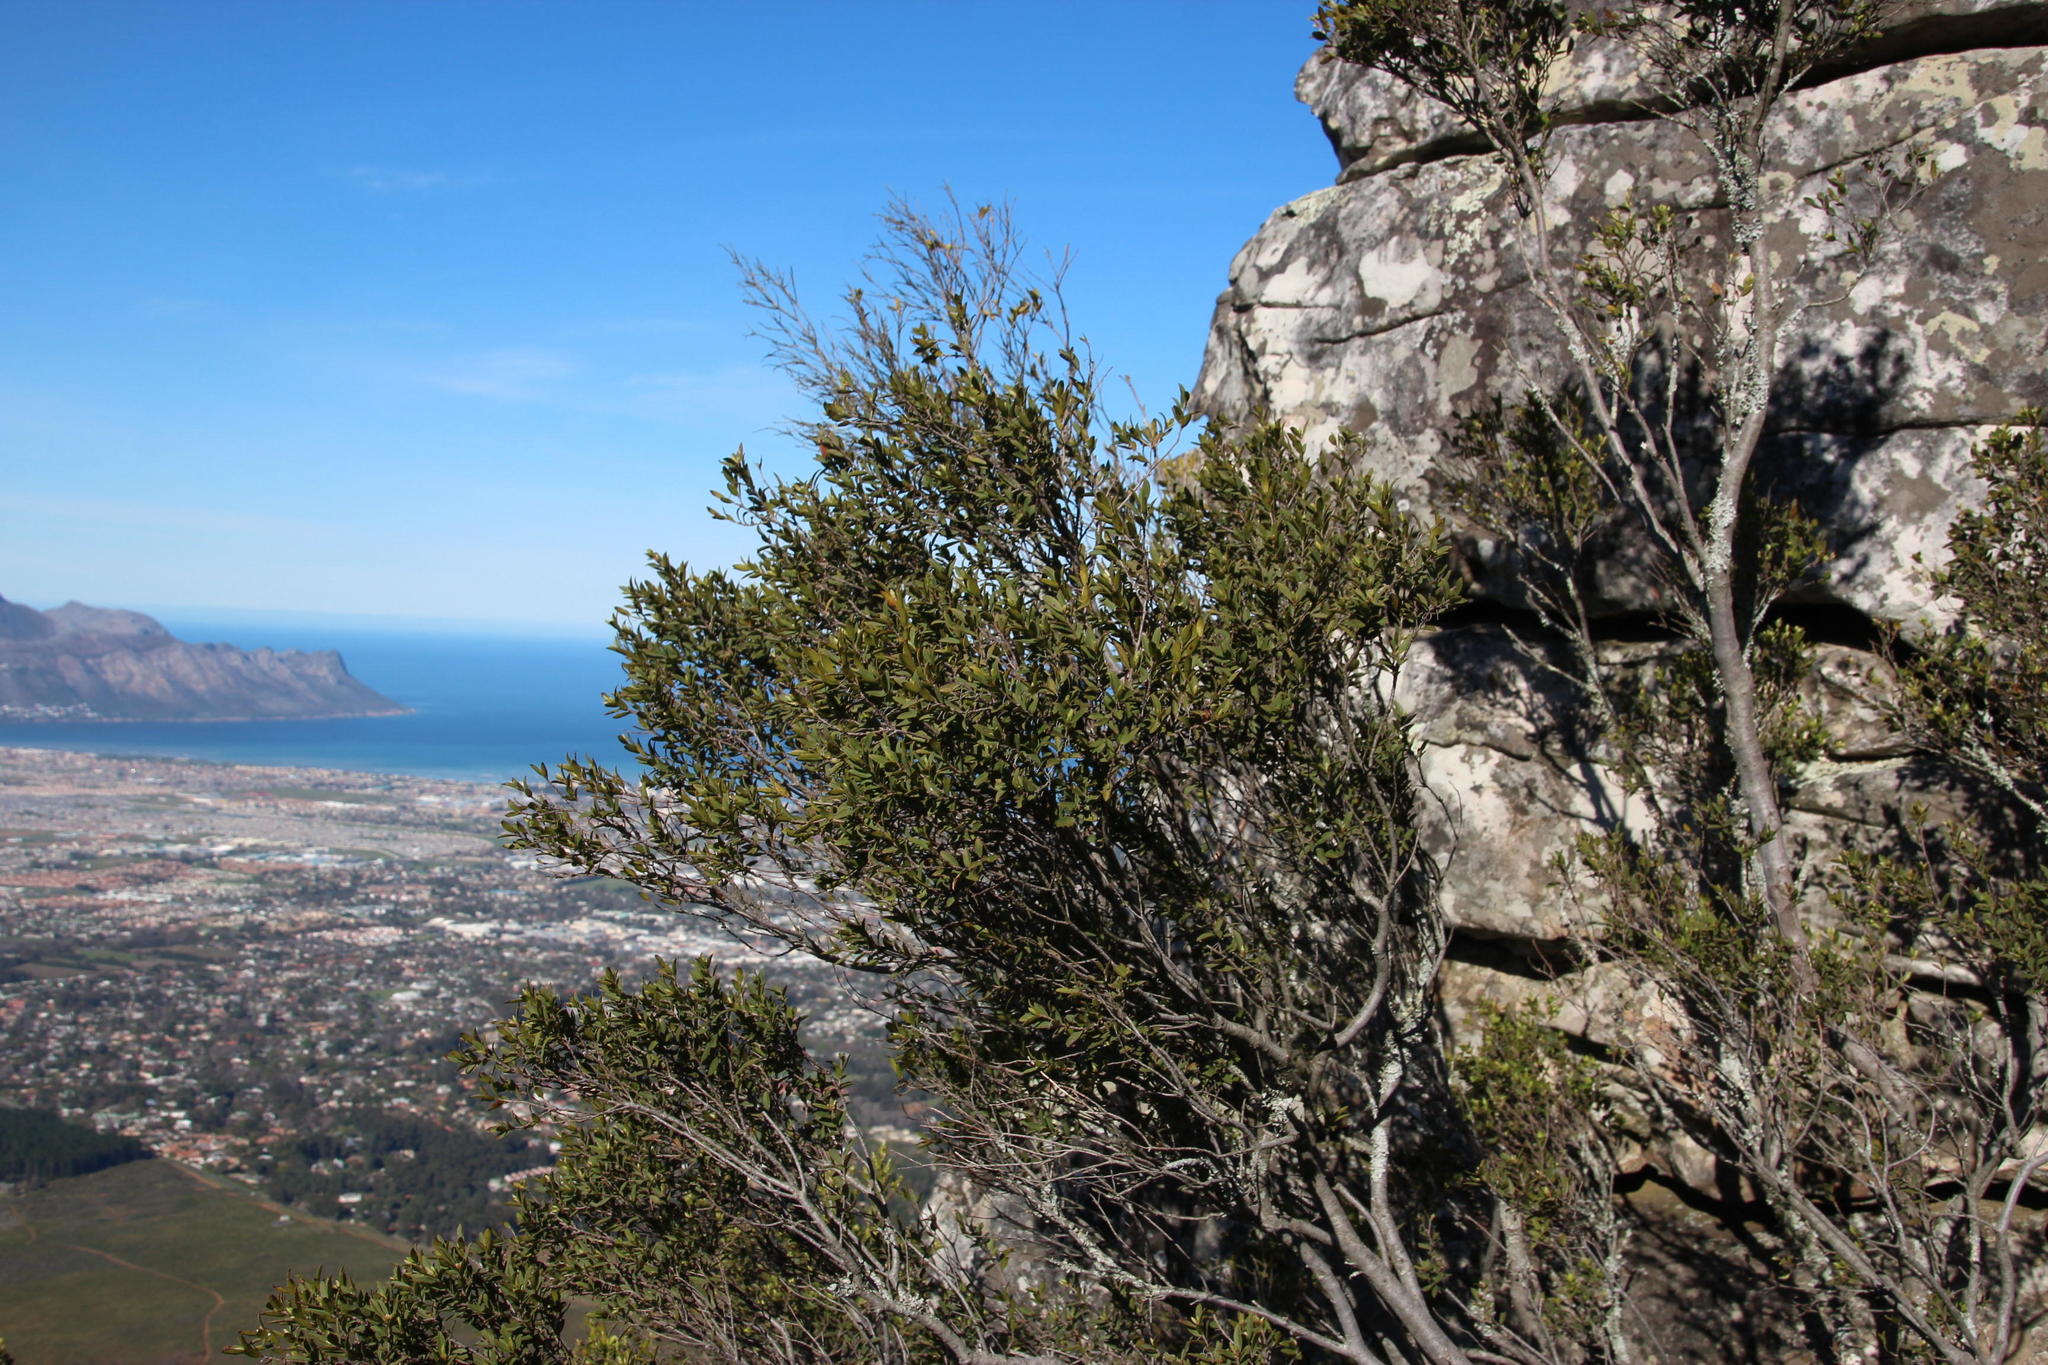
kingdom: Plantae
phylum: Tracheophyta
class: Magnoliopsida
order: Ericales
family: Primulaceae
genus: Myrsine
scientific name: Myrsine africana
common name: African-boxwood
